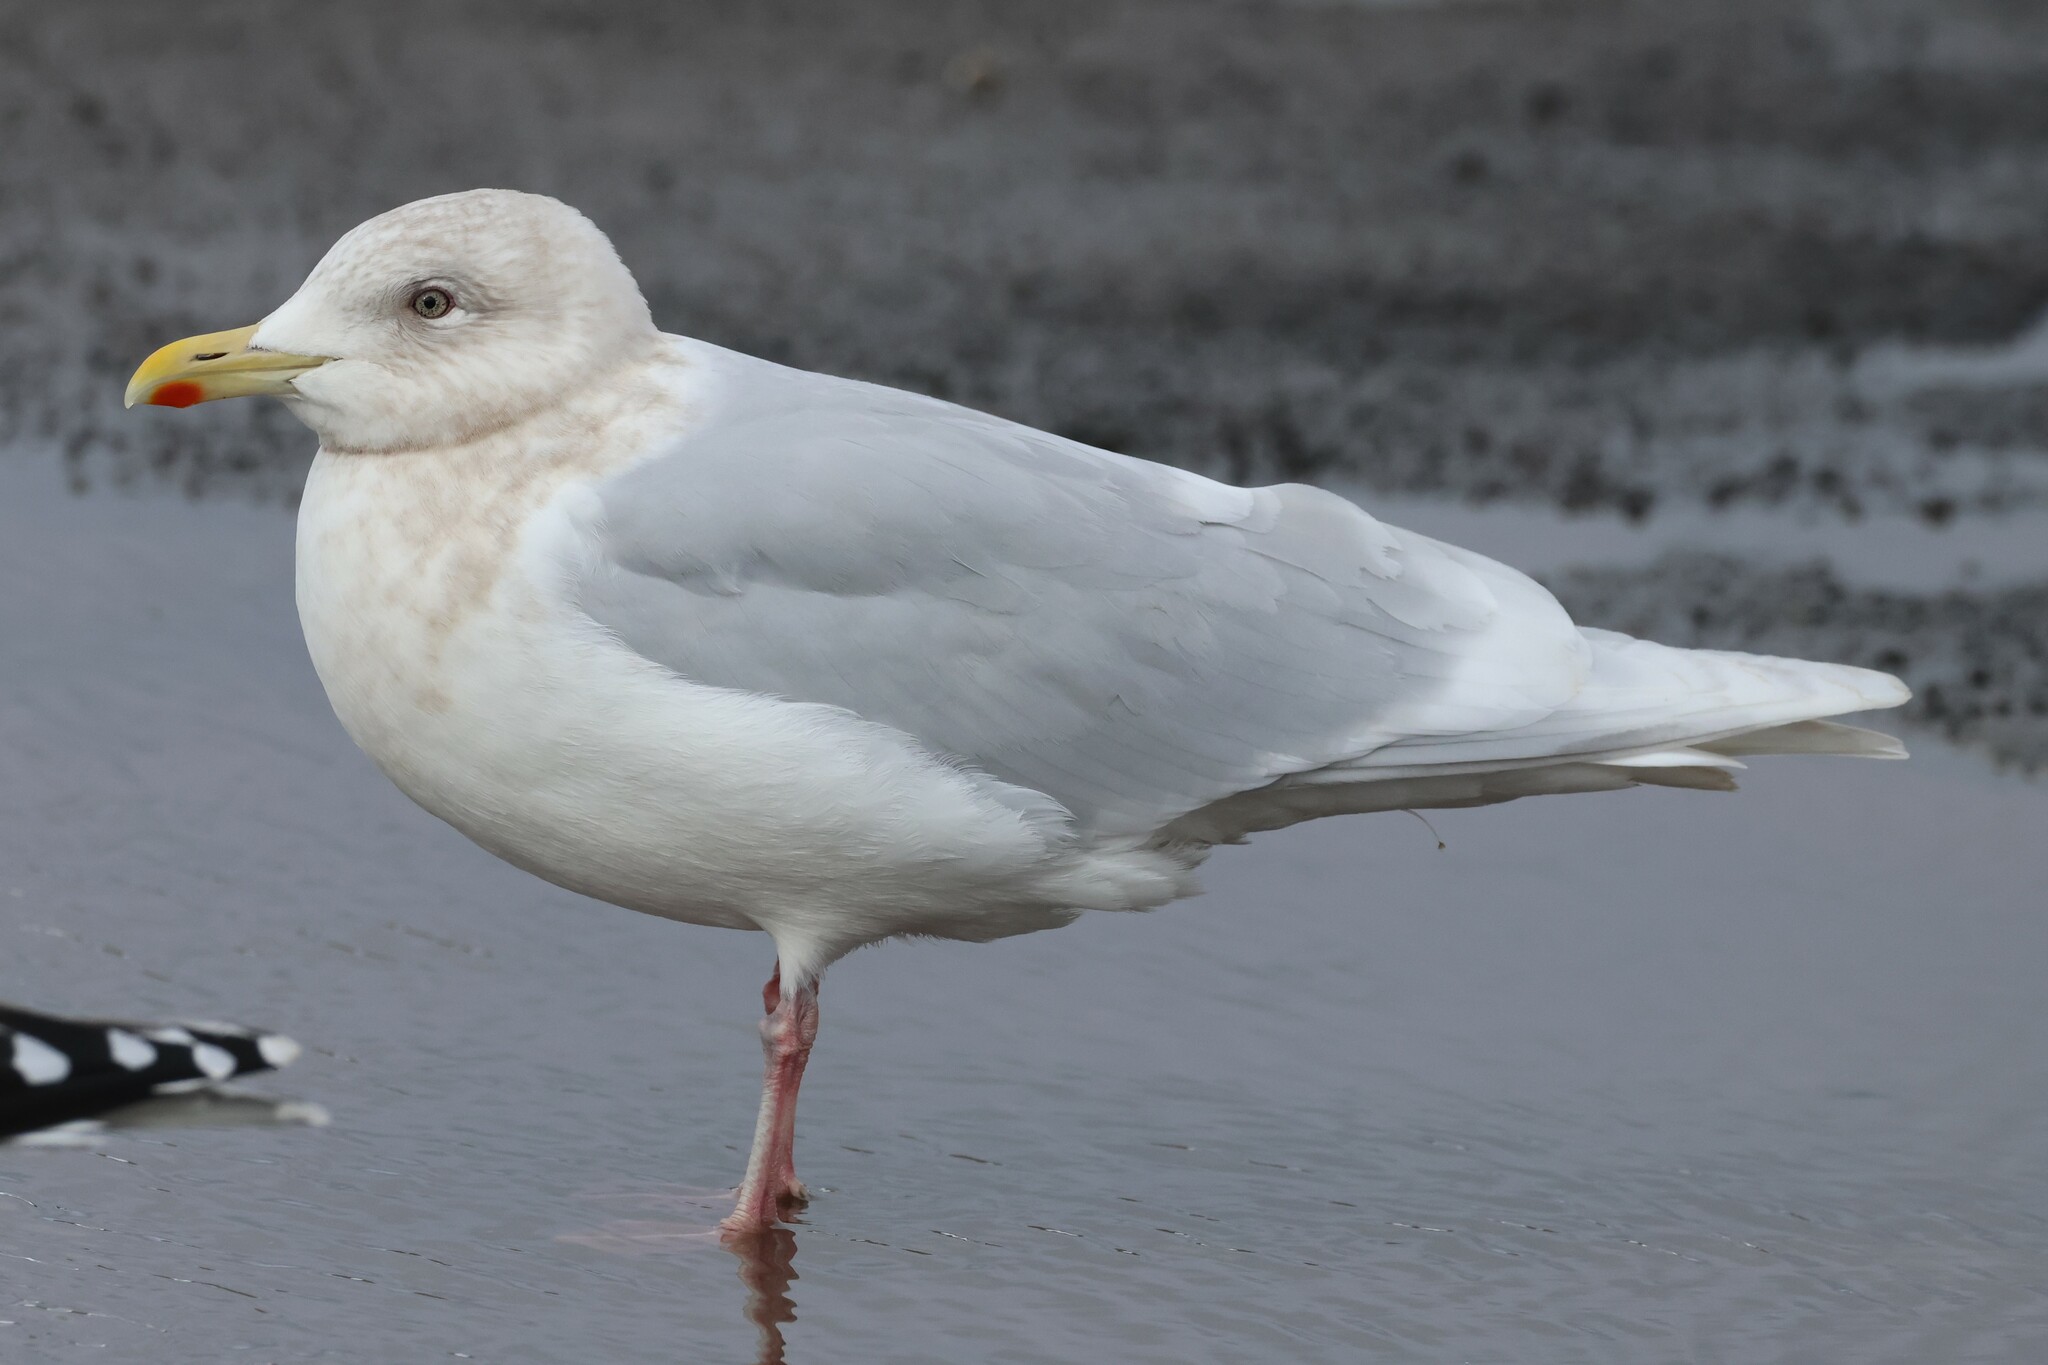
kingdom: Animalia
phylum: Chordata
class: Aves
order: Charadriiformes
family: Laridae
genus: Larus
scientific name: Larus glaucoides
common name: Iceland gull
